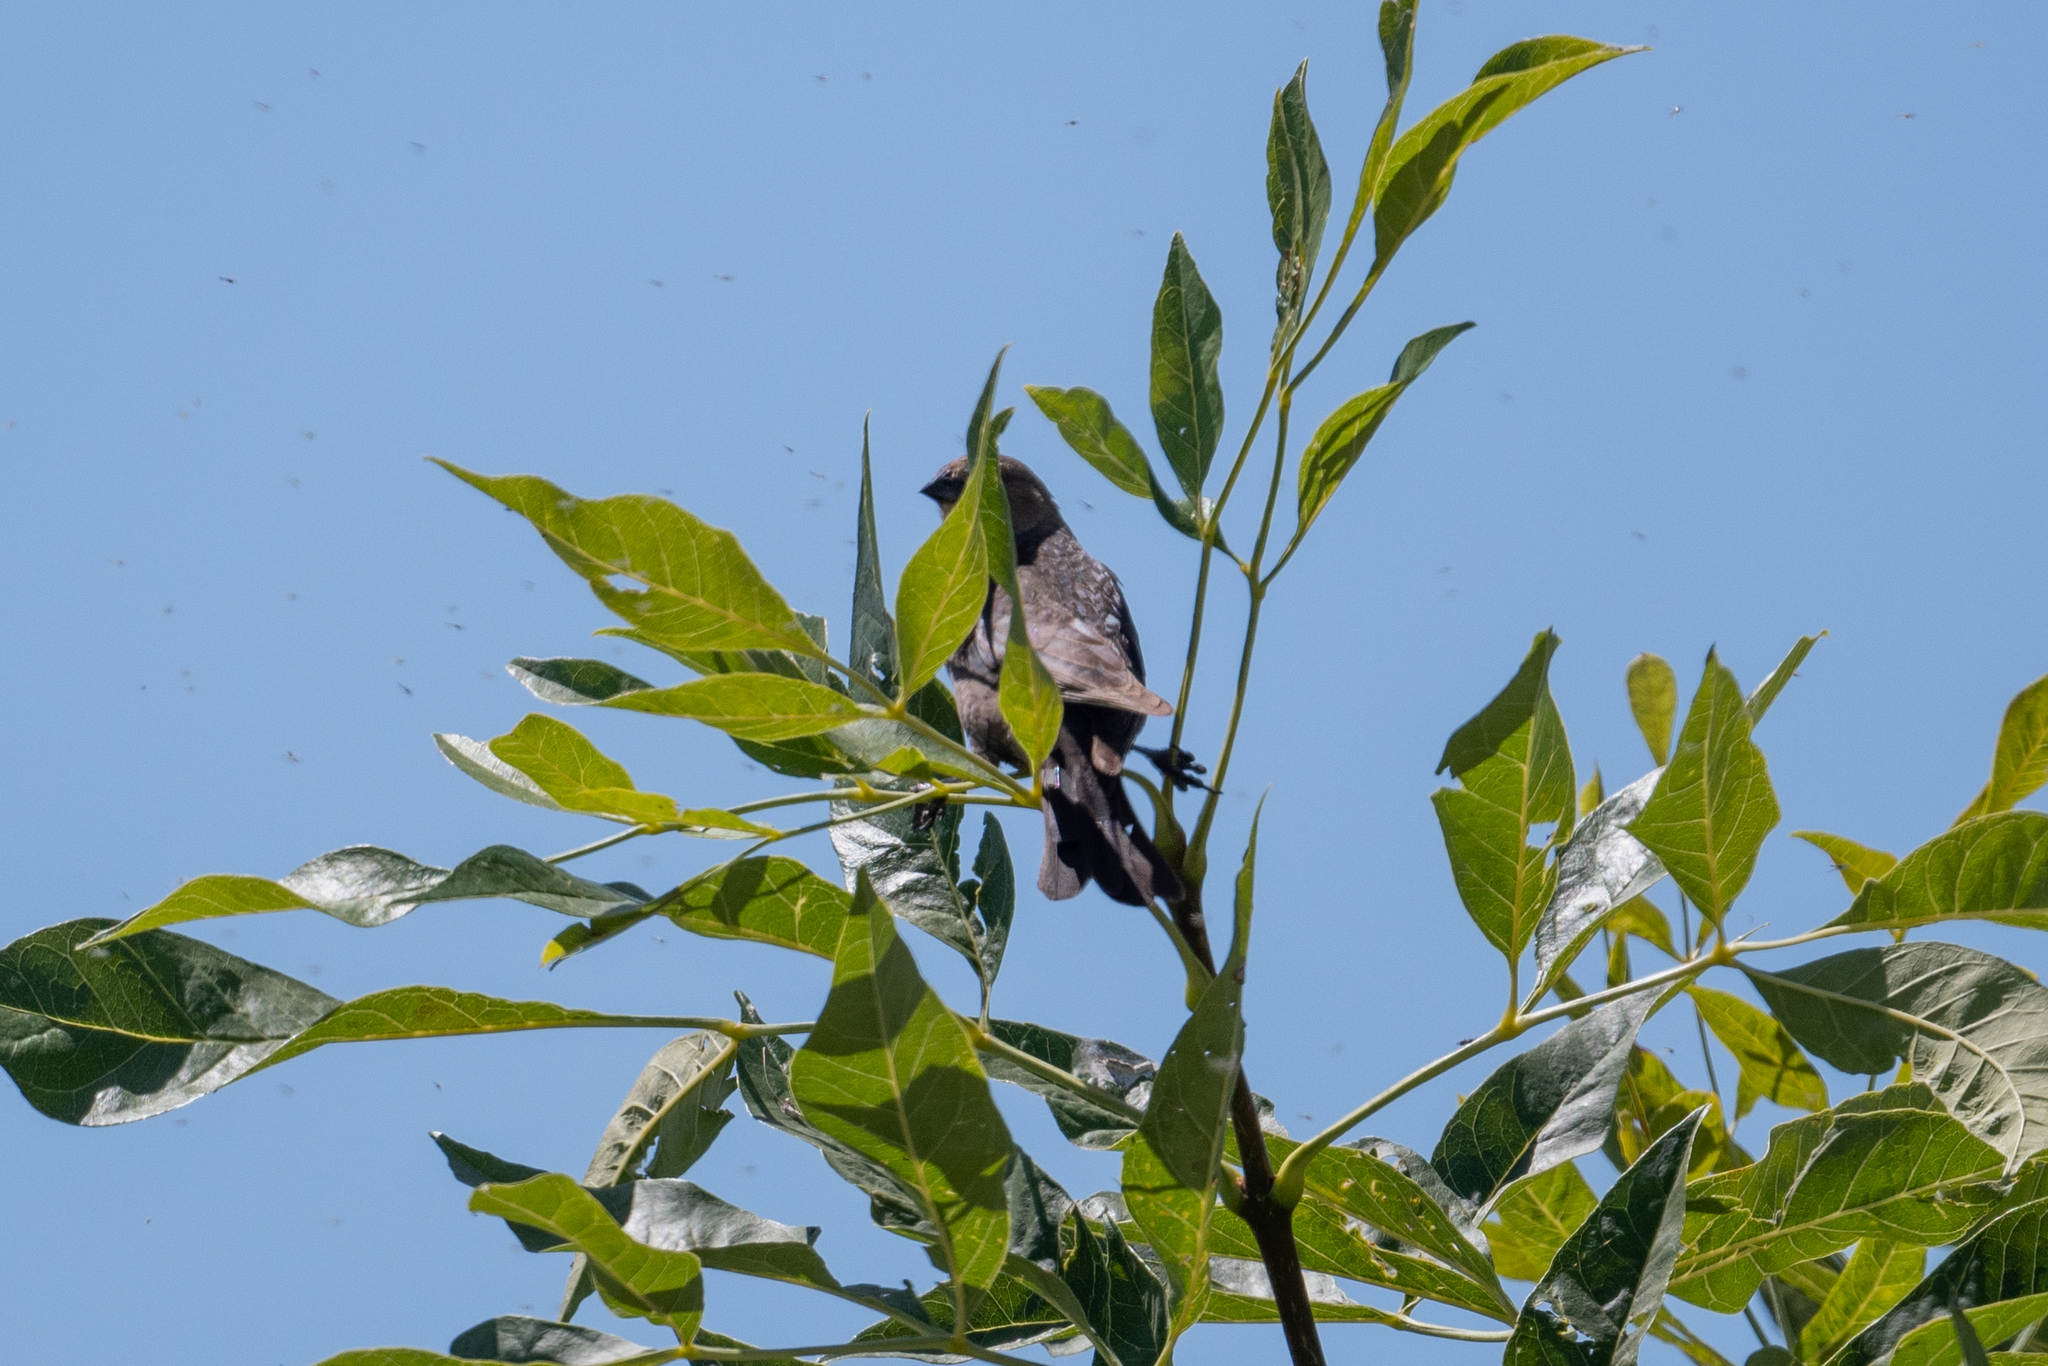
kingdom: Animalia
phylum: Chordata
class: Aves
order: Passeriformes
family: Icteridae
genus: Molothrus
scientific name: Molothrus ater
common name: Brown-headed cowbird
